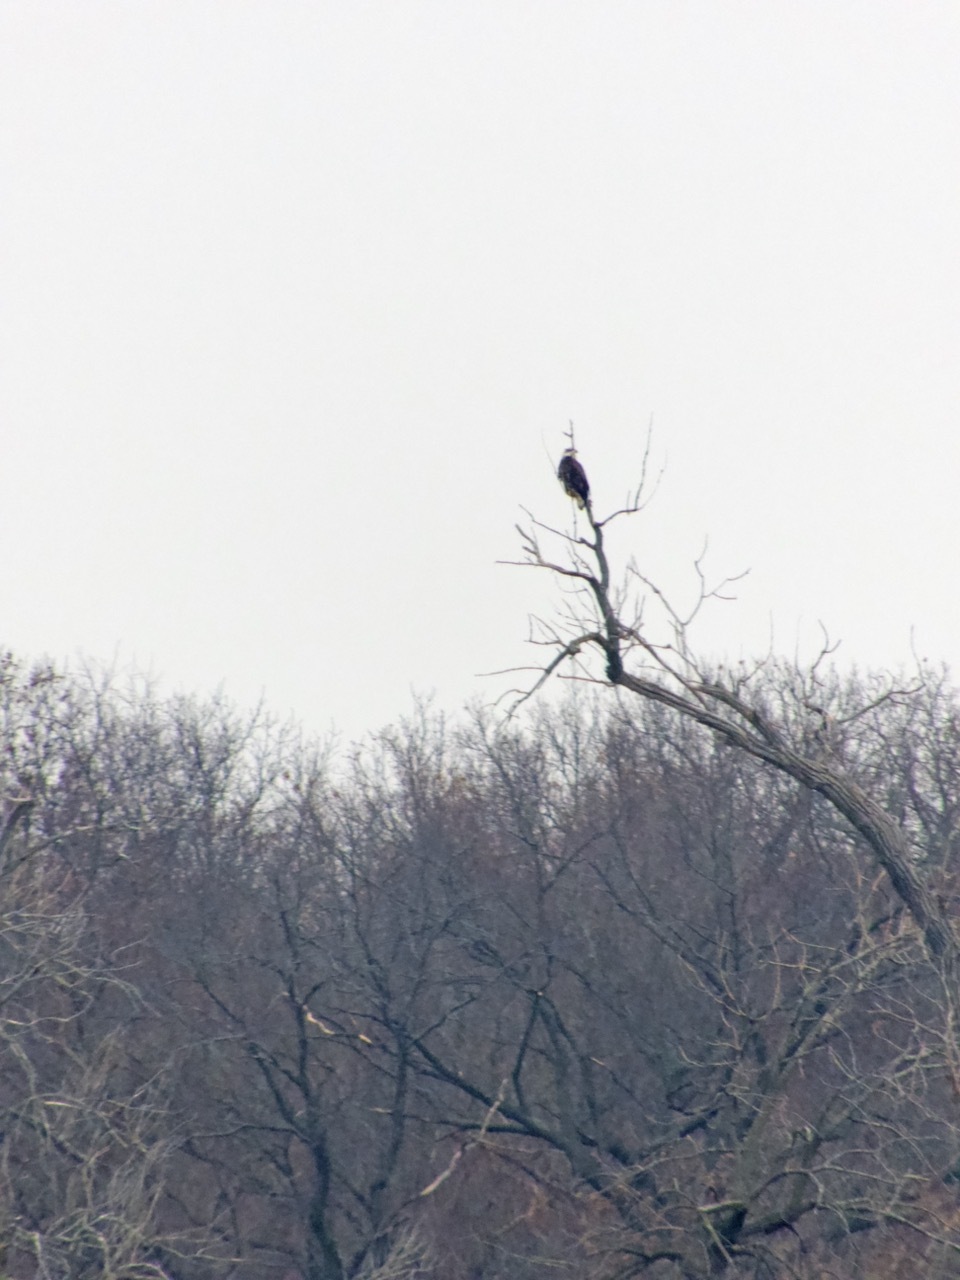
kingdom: Animalia
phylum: Chordata
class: Aves
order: Accipitriformes
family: Accipitridae
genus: Haliaeetus
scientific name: Haliaeetus leucocephalus
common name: Bald eagle
